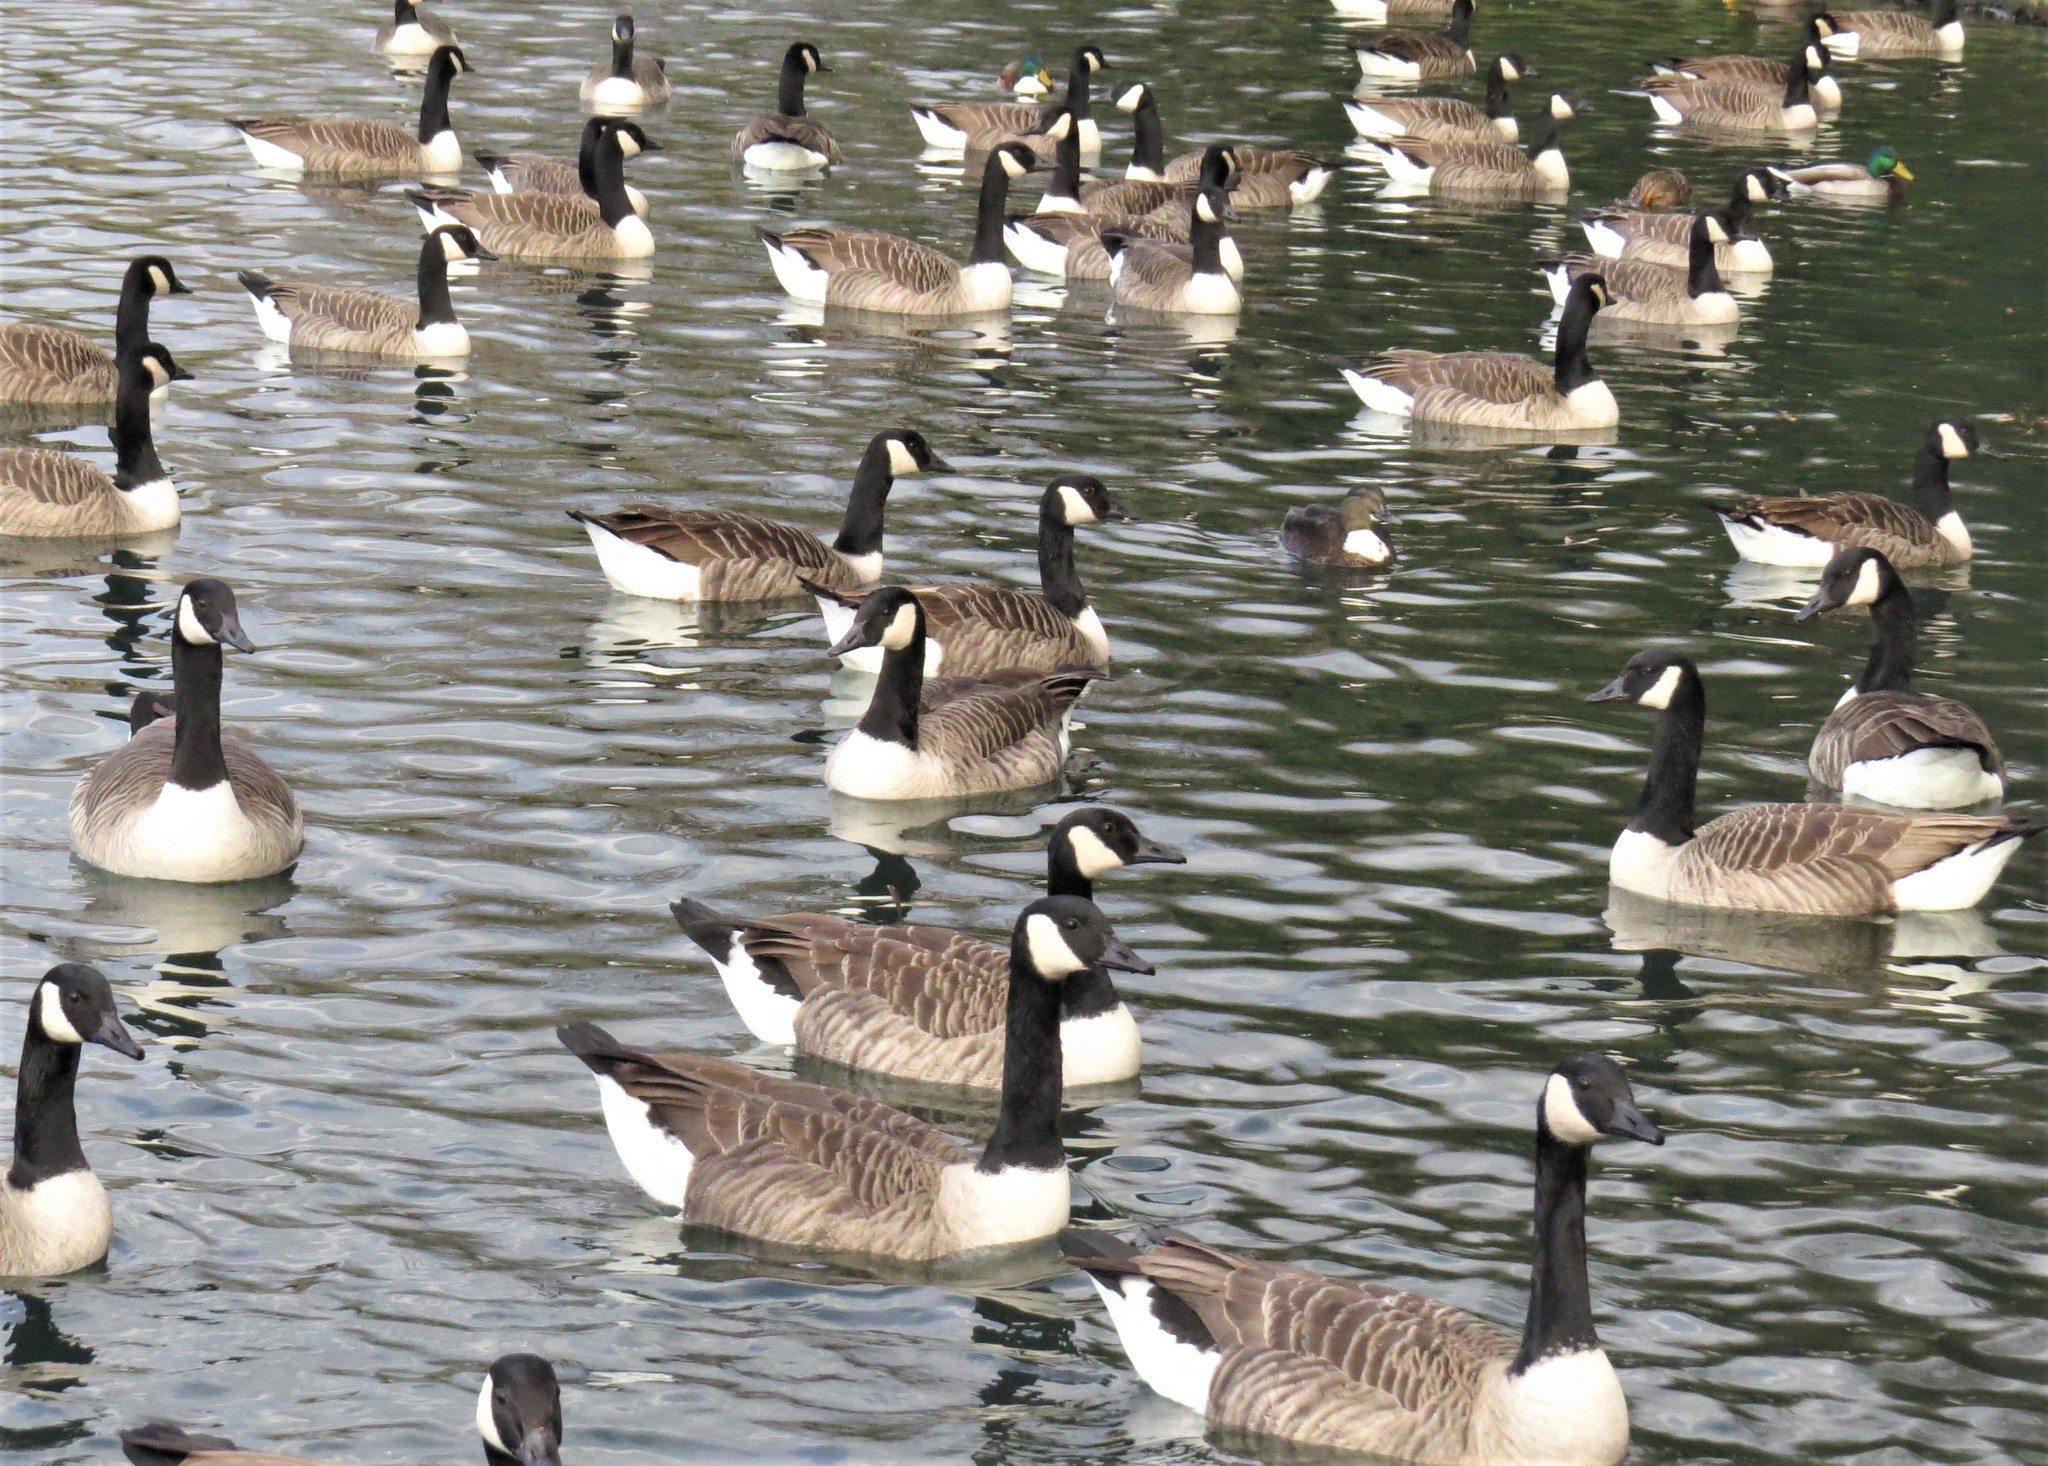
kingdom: Animalia
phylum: Chordata
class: Aves
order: Anseriformes
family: Anatidae
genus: Branta
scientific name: Branta canadensis
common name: Canada goose
